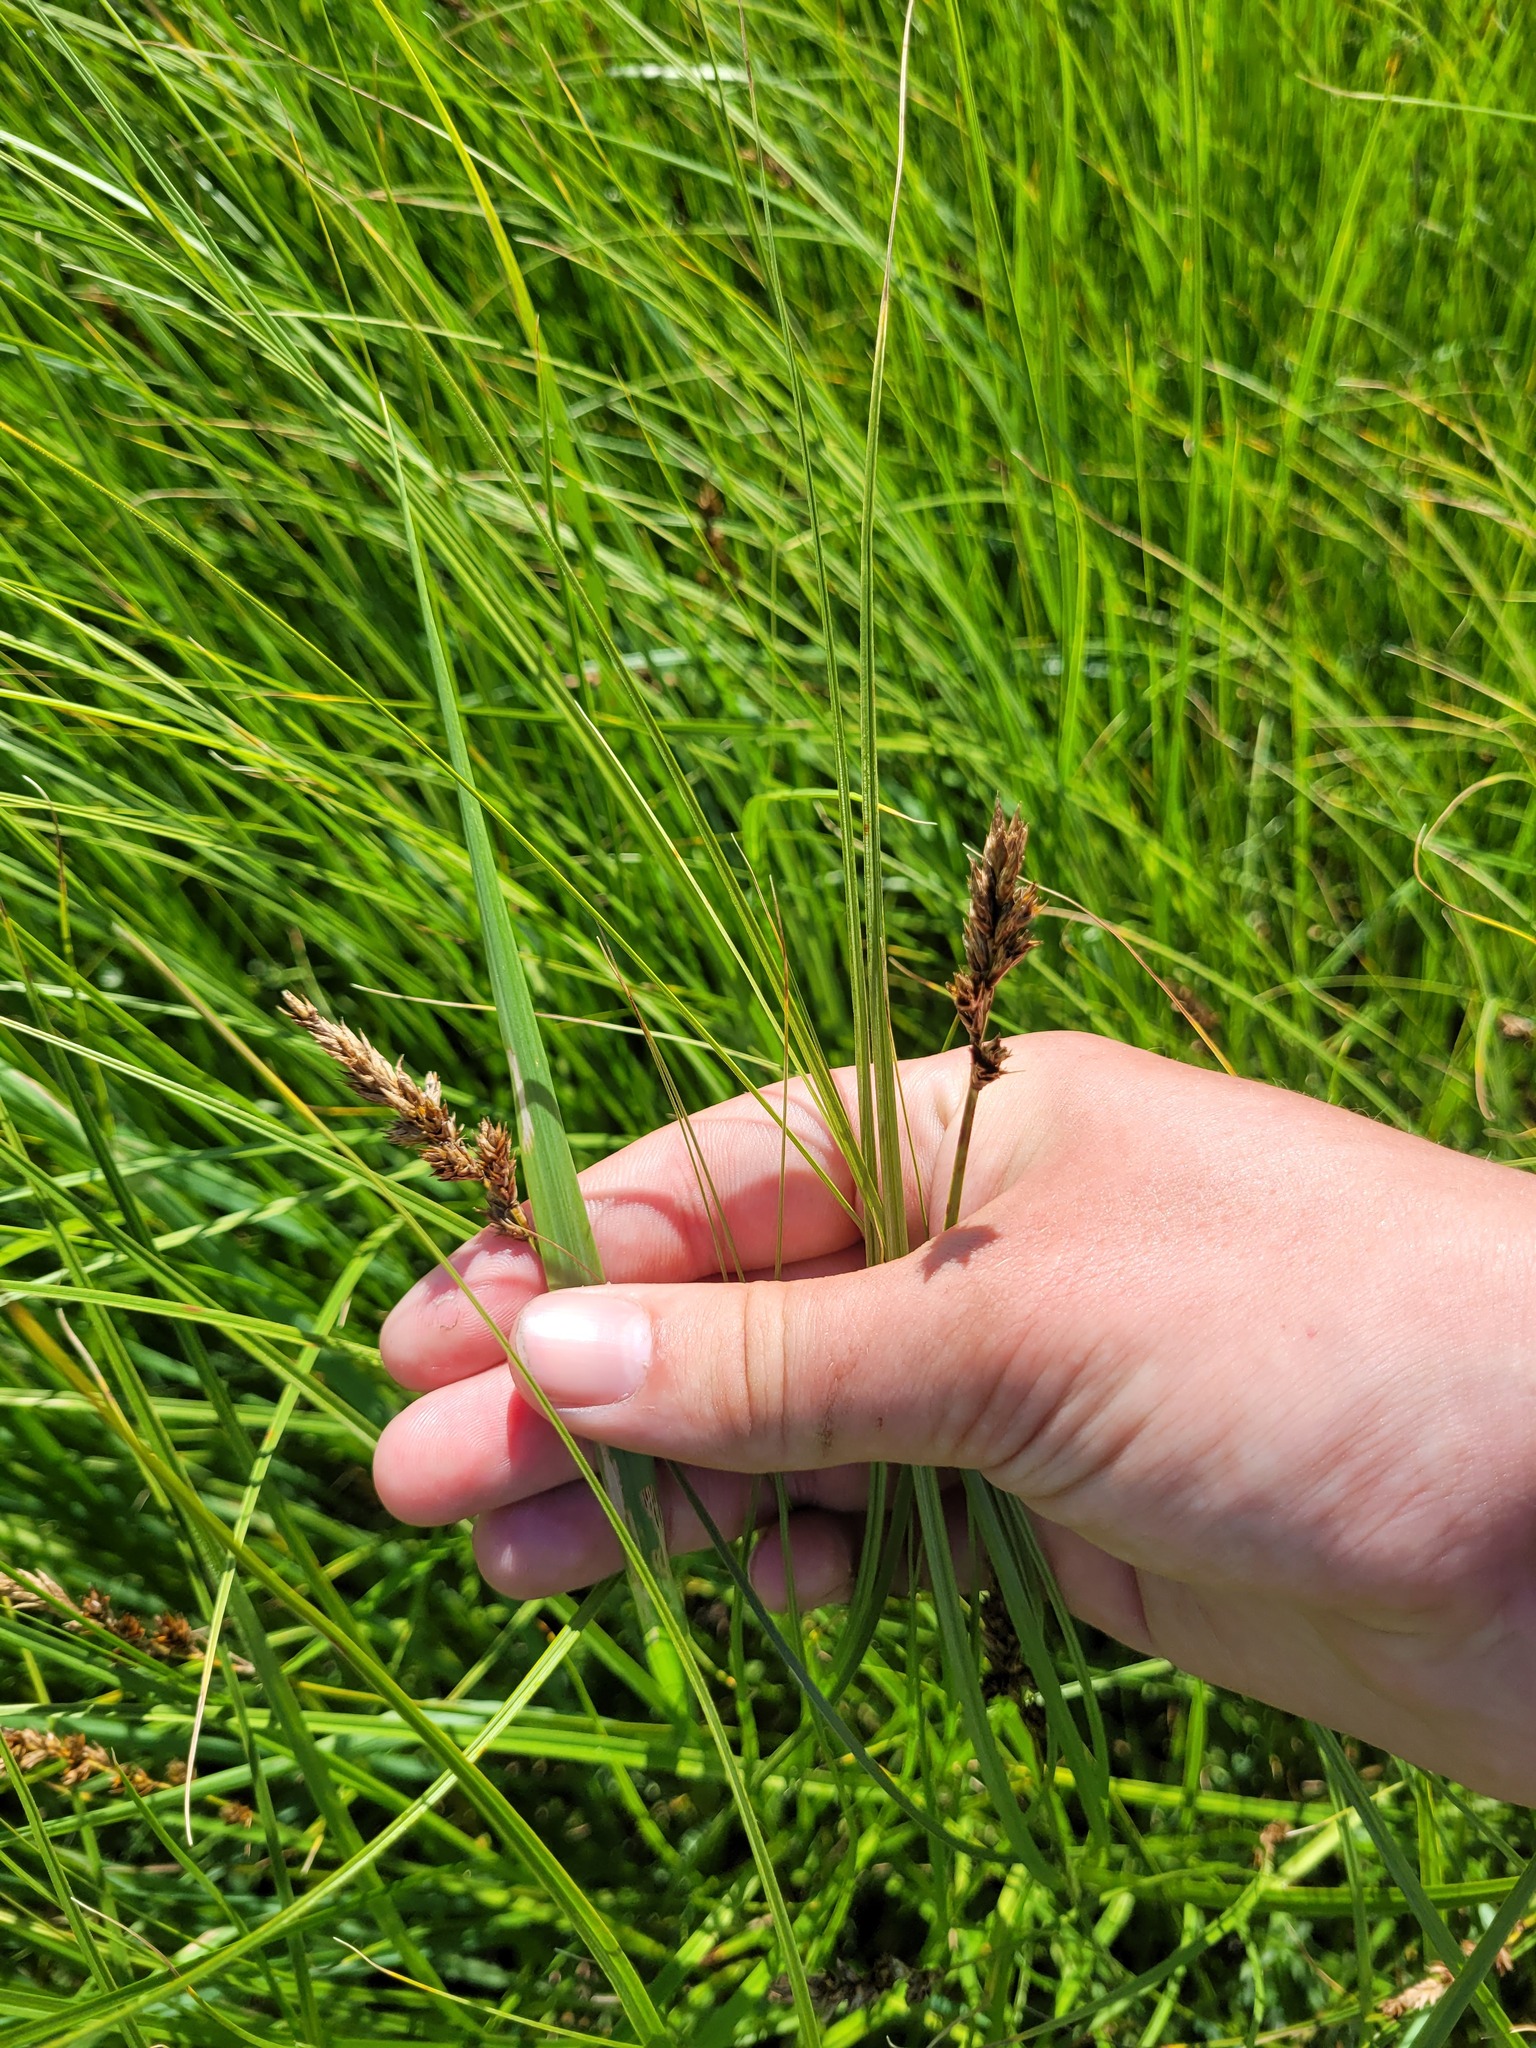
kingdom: Plantae
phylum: Tracheophyta
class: Liliopsida
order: Poales
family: Cyperaceae
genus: Carex
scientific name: Carex disticha
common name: Brown sedge
